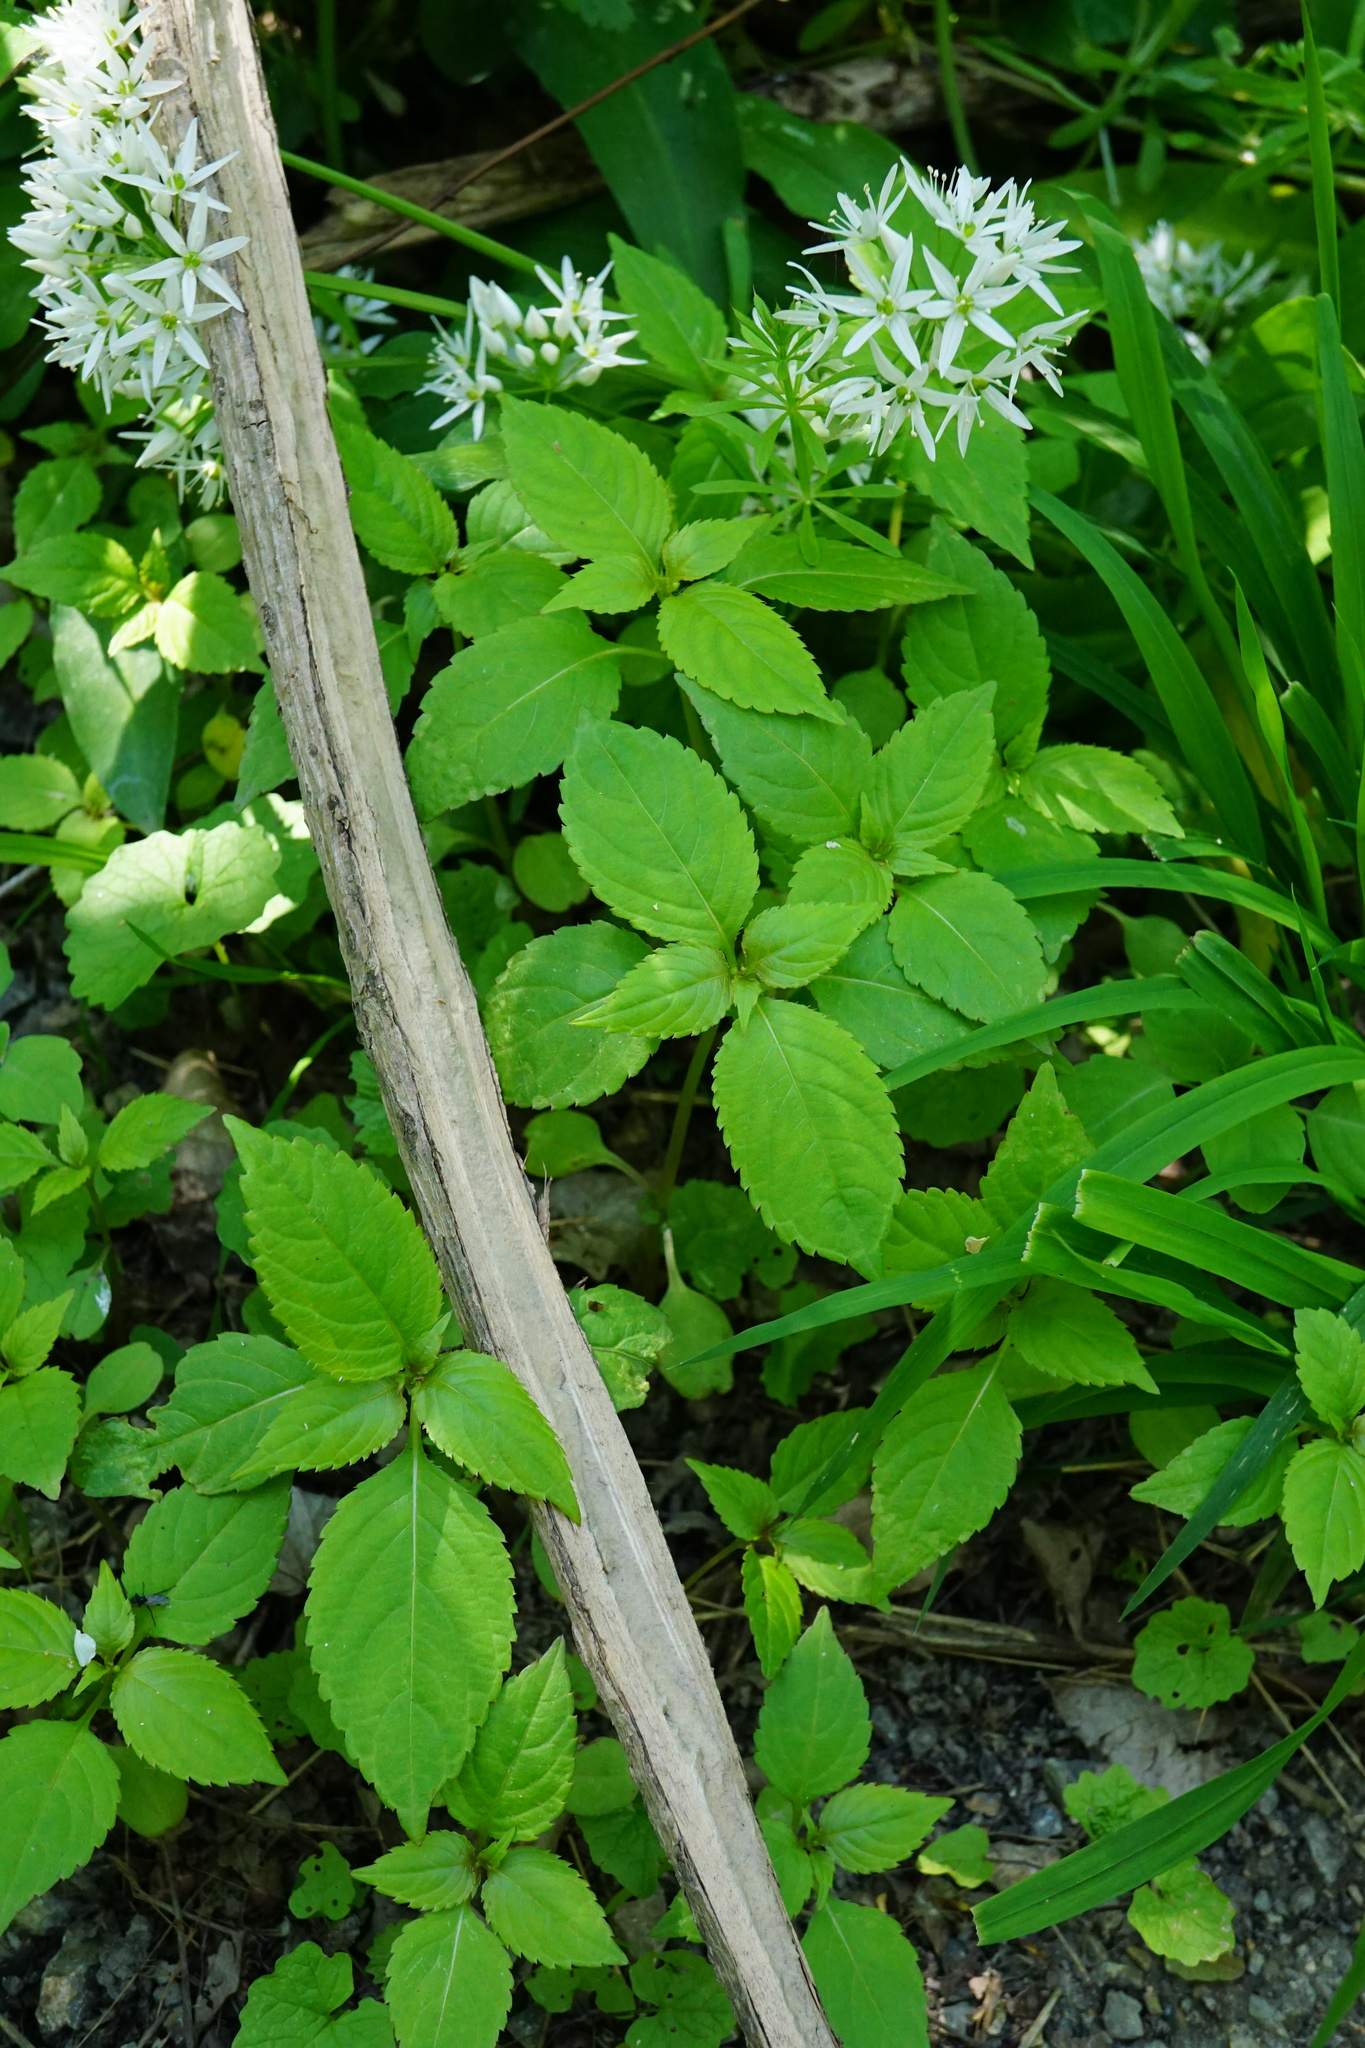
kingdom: Plantae
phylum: Tracheophyta
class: Magnoliopsida
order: Ericales
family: Balsaminaceae
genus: Impatiens
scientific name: Impatiens parviflora
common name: Small balsam
